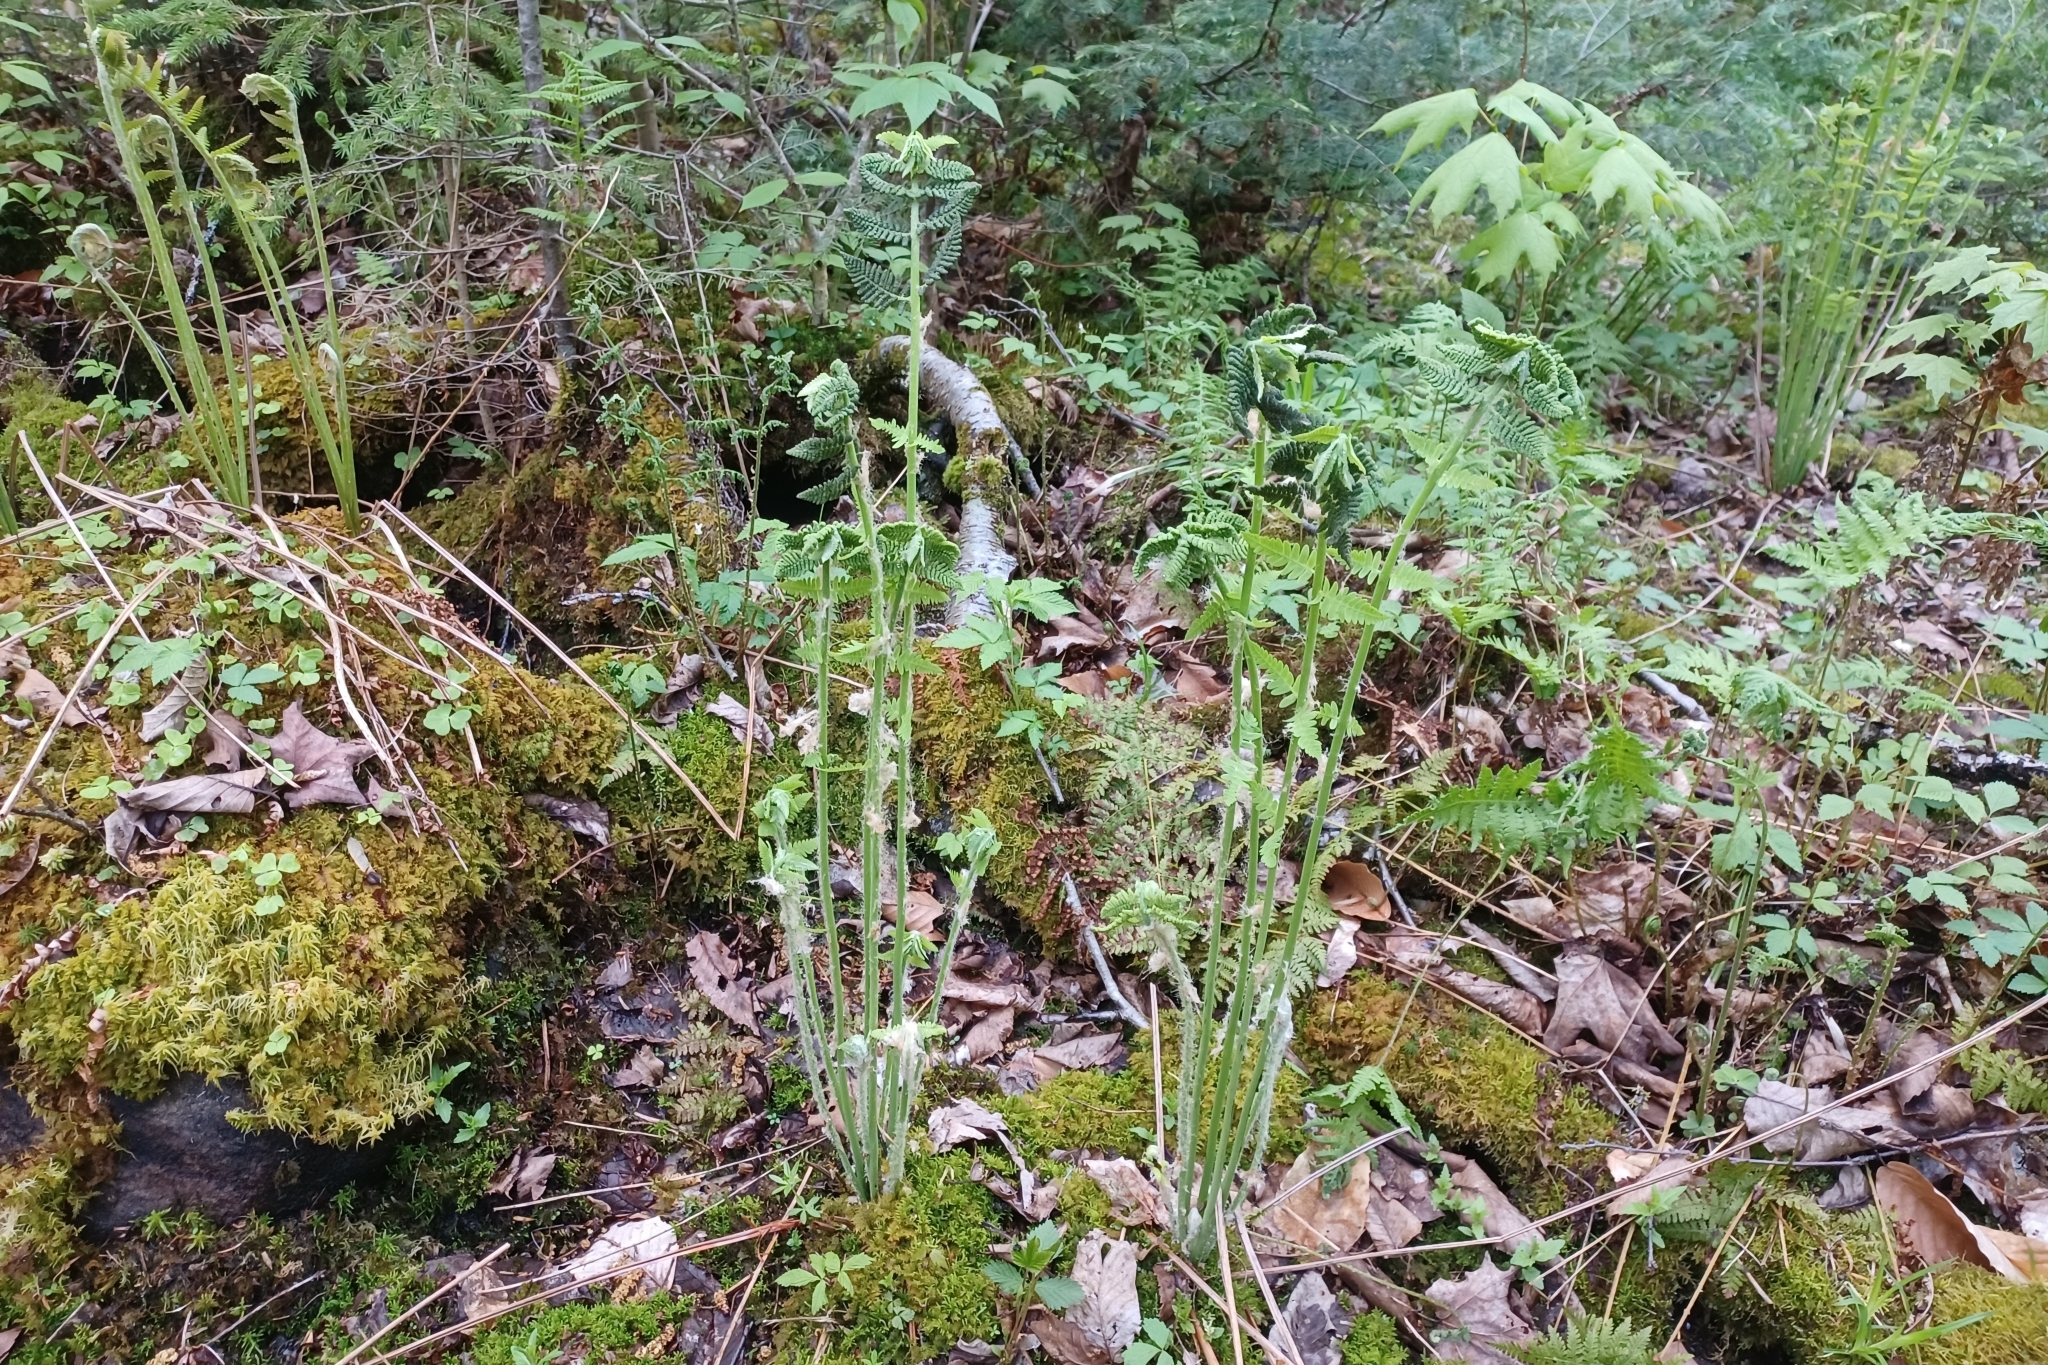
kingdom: Plantae
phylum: Tracheophyta
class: Polypodiopsida
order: Osmundales
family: Osmundaceae
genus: Claytosmunda
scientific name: Claytosmunda claytoniana
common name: Clayton's fern
